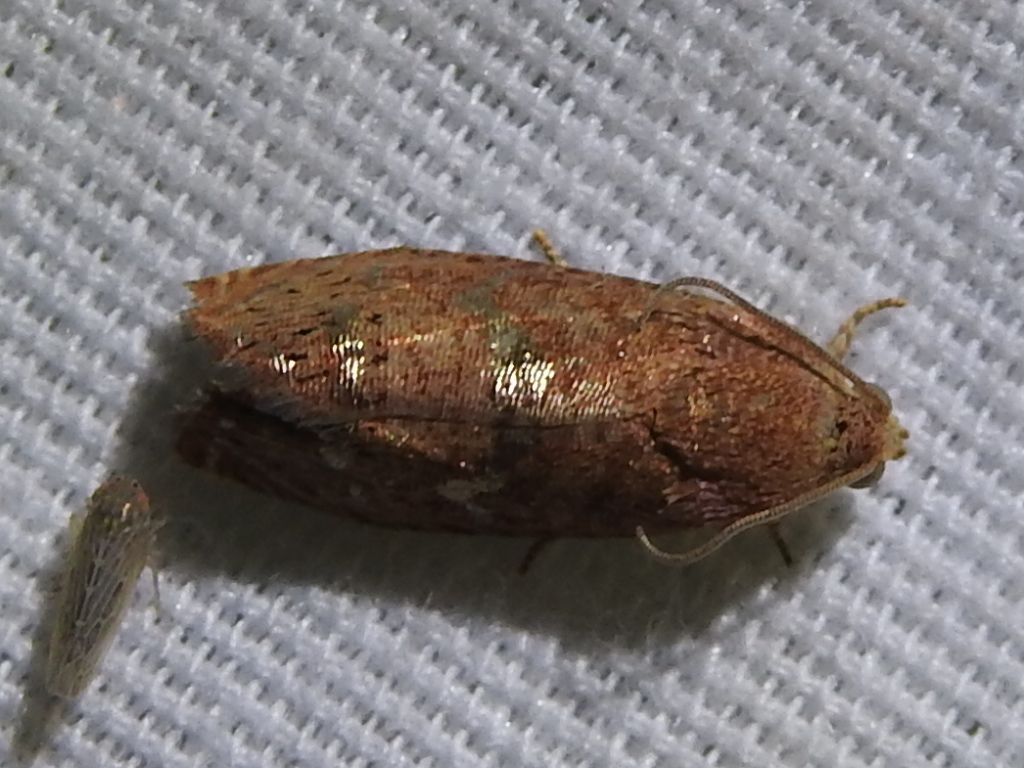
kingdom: Animalia
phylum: Arthropoda
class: Insecta
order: Lepidoptera
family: Tortricidae
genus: Cydia
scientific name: Cydia latiferreana
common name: Filbertworm moth
